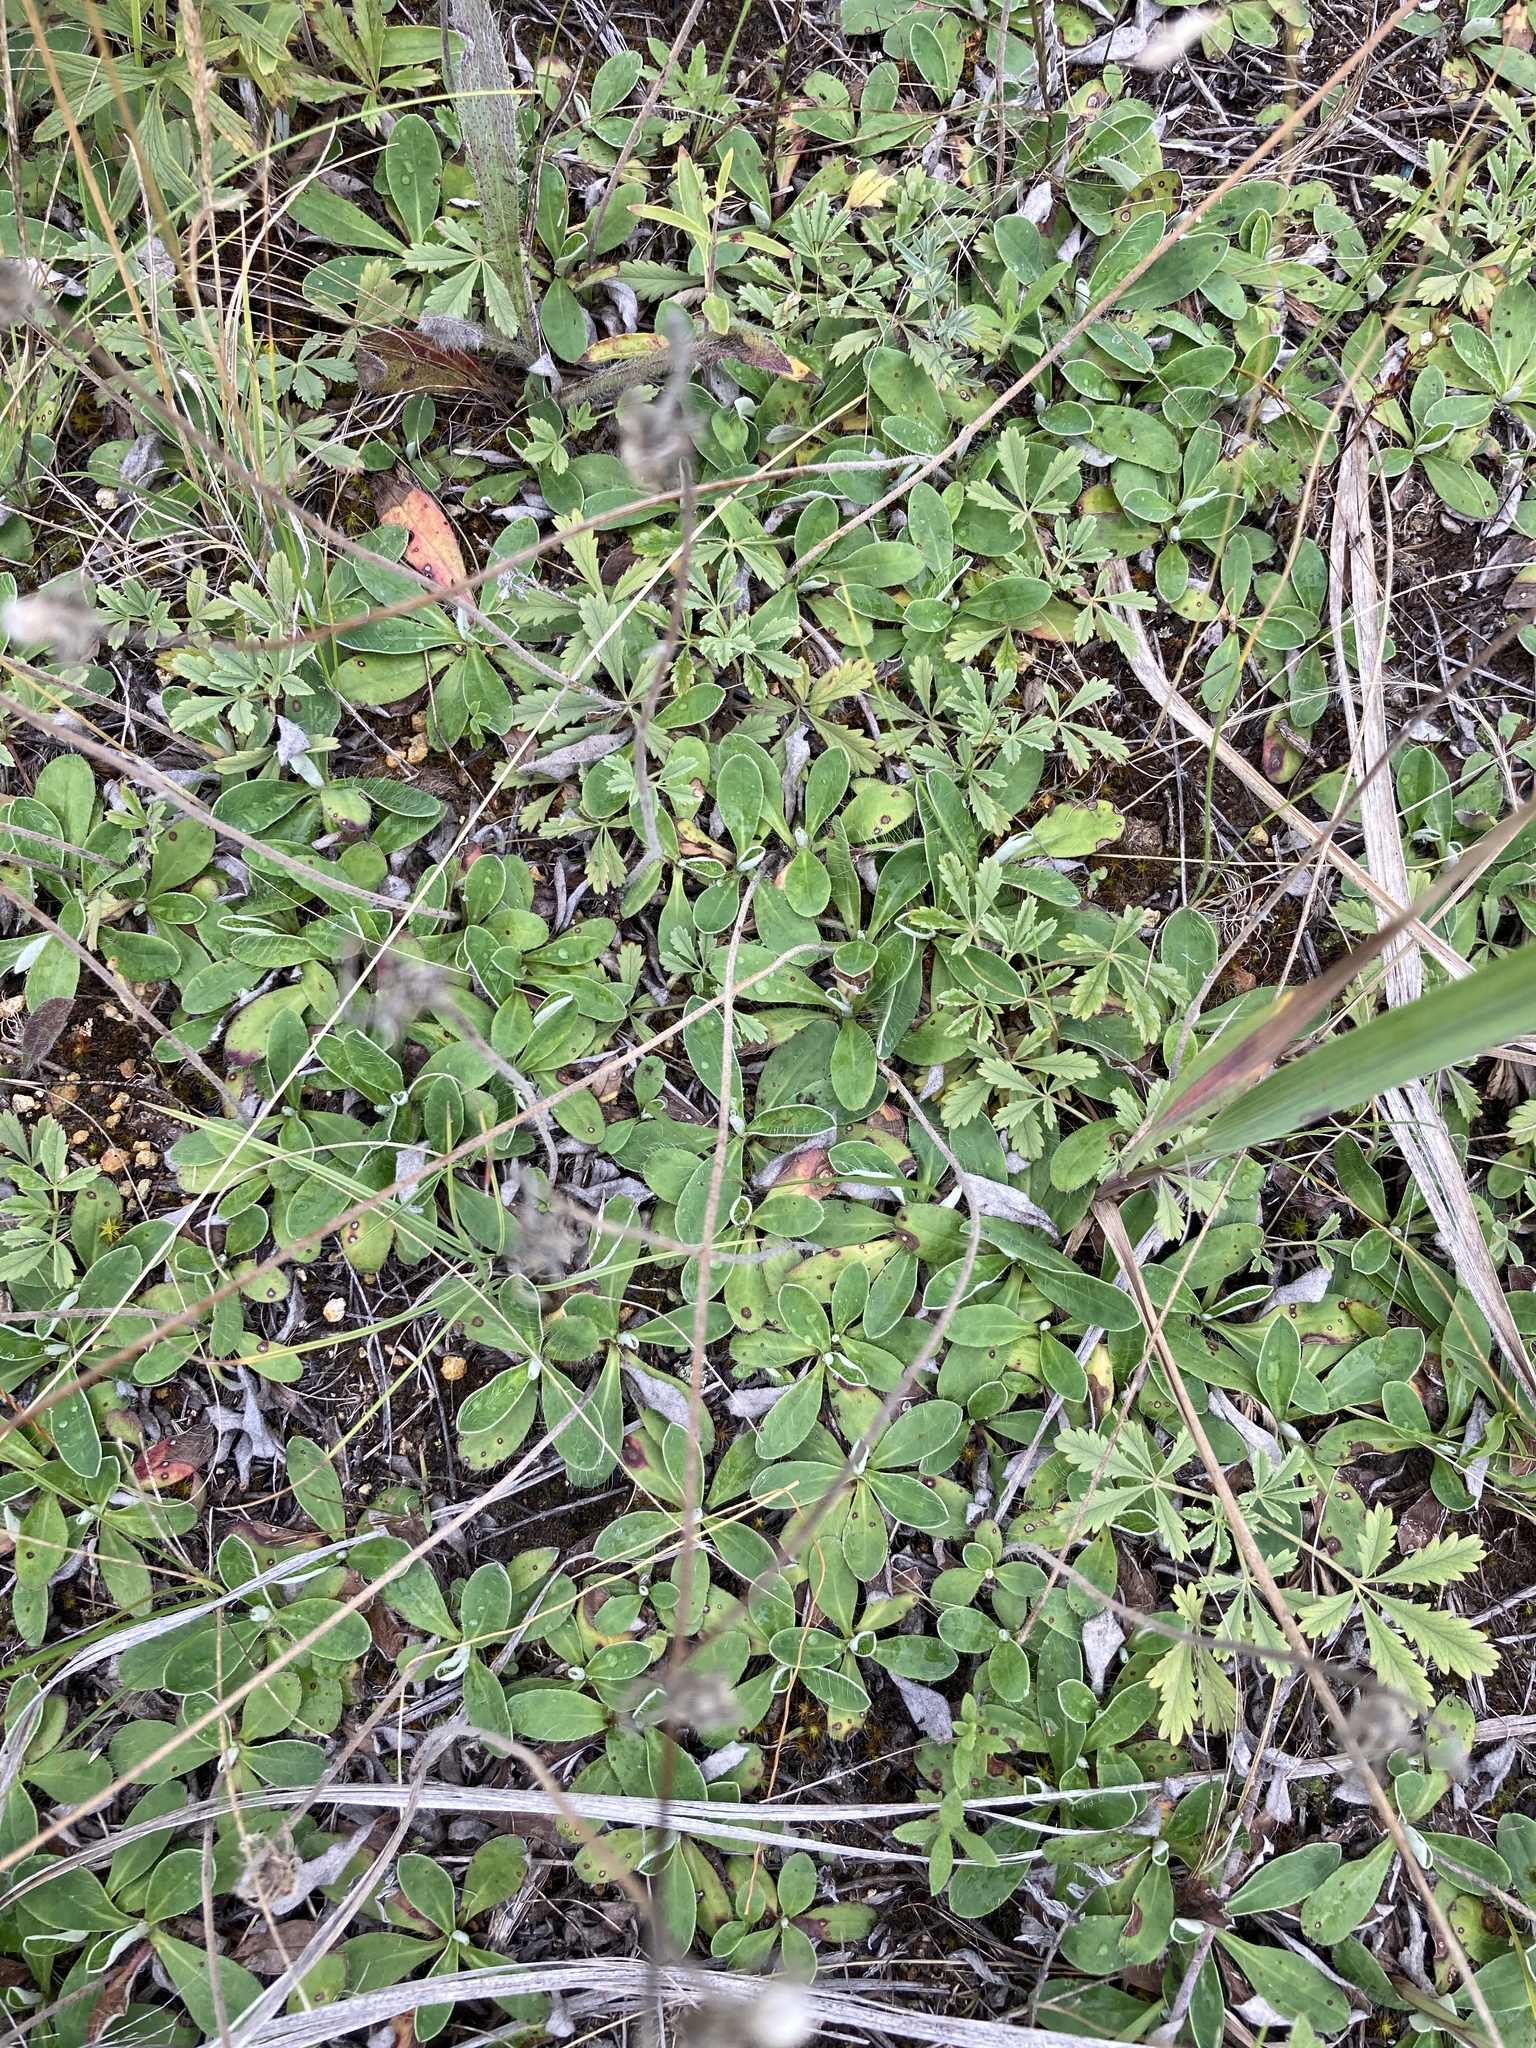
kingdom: Plantae
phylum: Tracheophyta
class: Magnoliopsida
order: Asterales
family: Asteraceae
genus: Pilosella
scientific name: Pilosella officinarum
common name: Mouse-ear hawkweed
